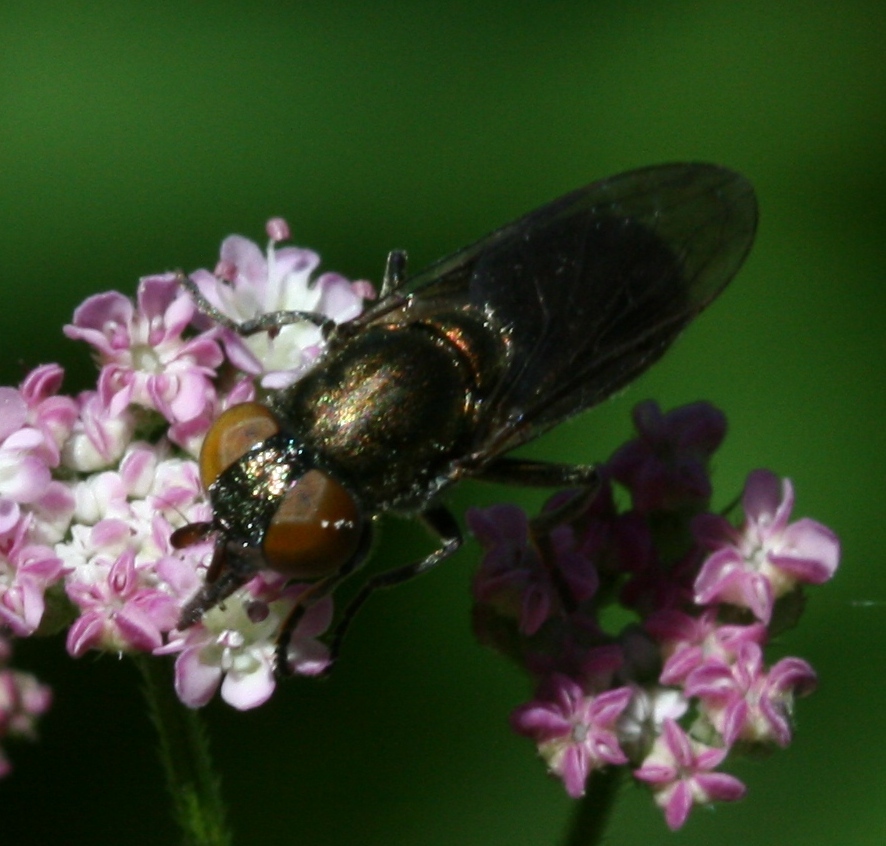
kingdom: Animalia
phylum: Arthropoda
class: Insecta
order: Diptera
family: Syrphidae
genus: Orthonevra
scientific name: Orthonevra splendens
